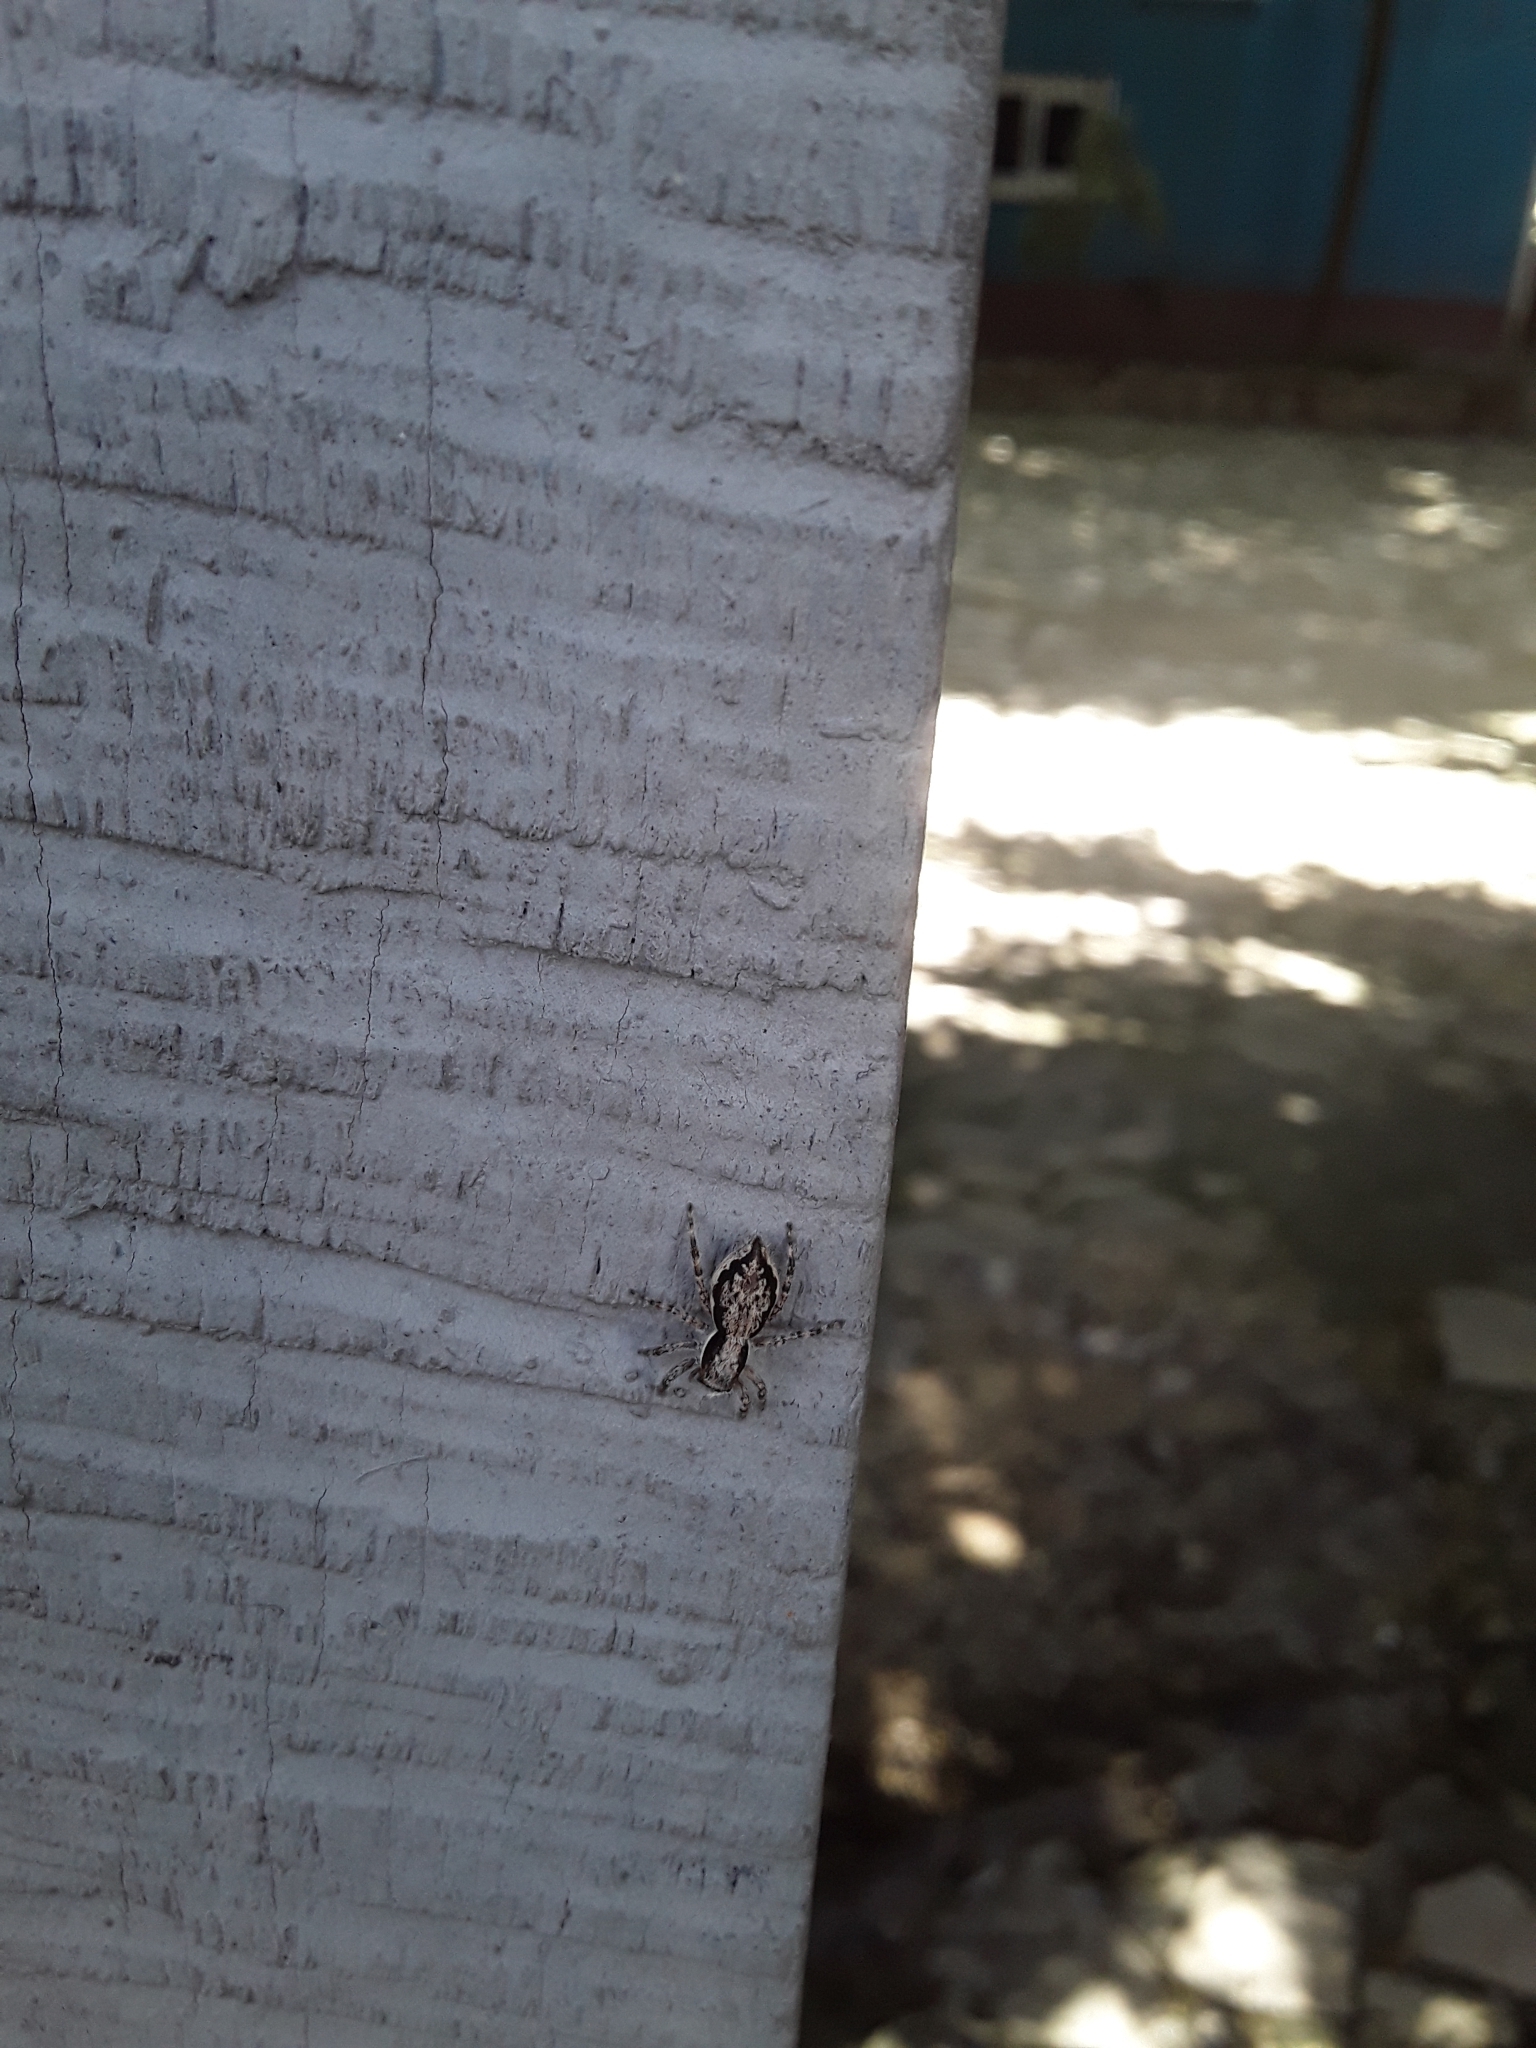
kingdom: Animalia
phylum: Arthropoda
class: Arachnida
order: Araneae
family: Salticidae
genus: Menemerus
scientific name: Menemerus bivittatus
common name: Gray wall jumper
